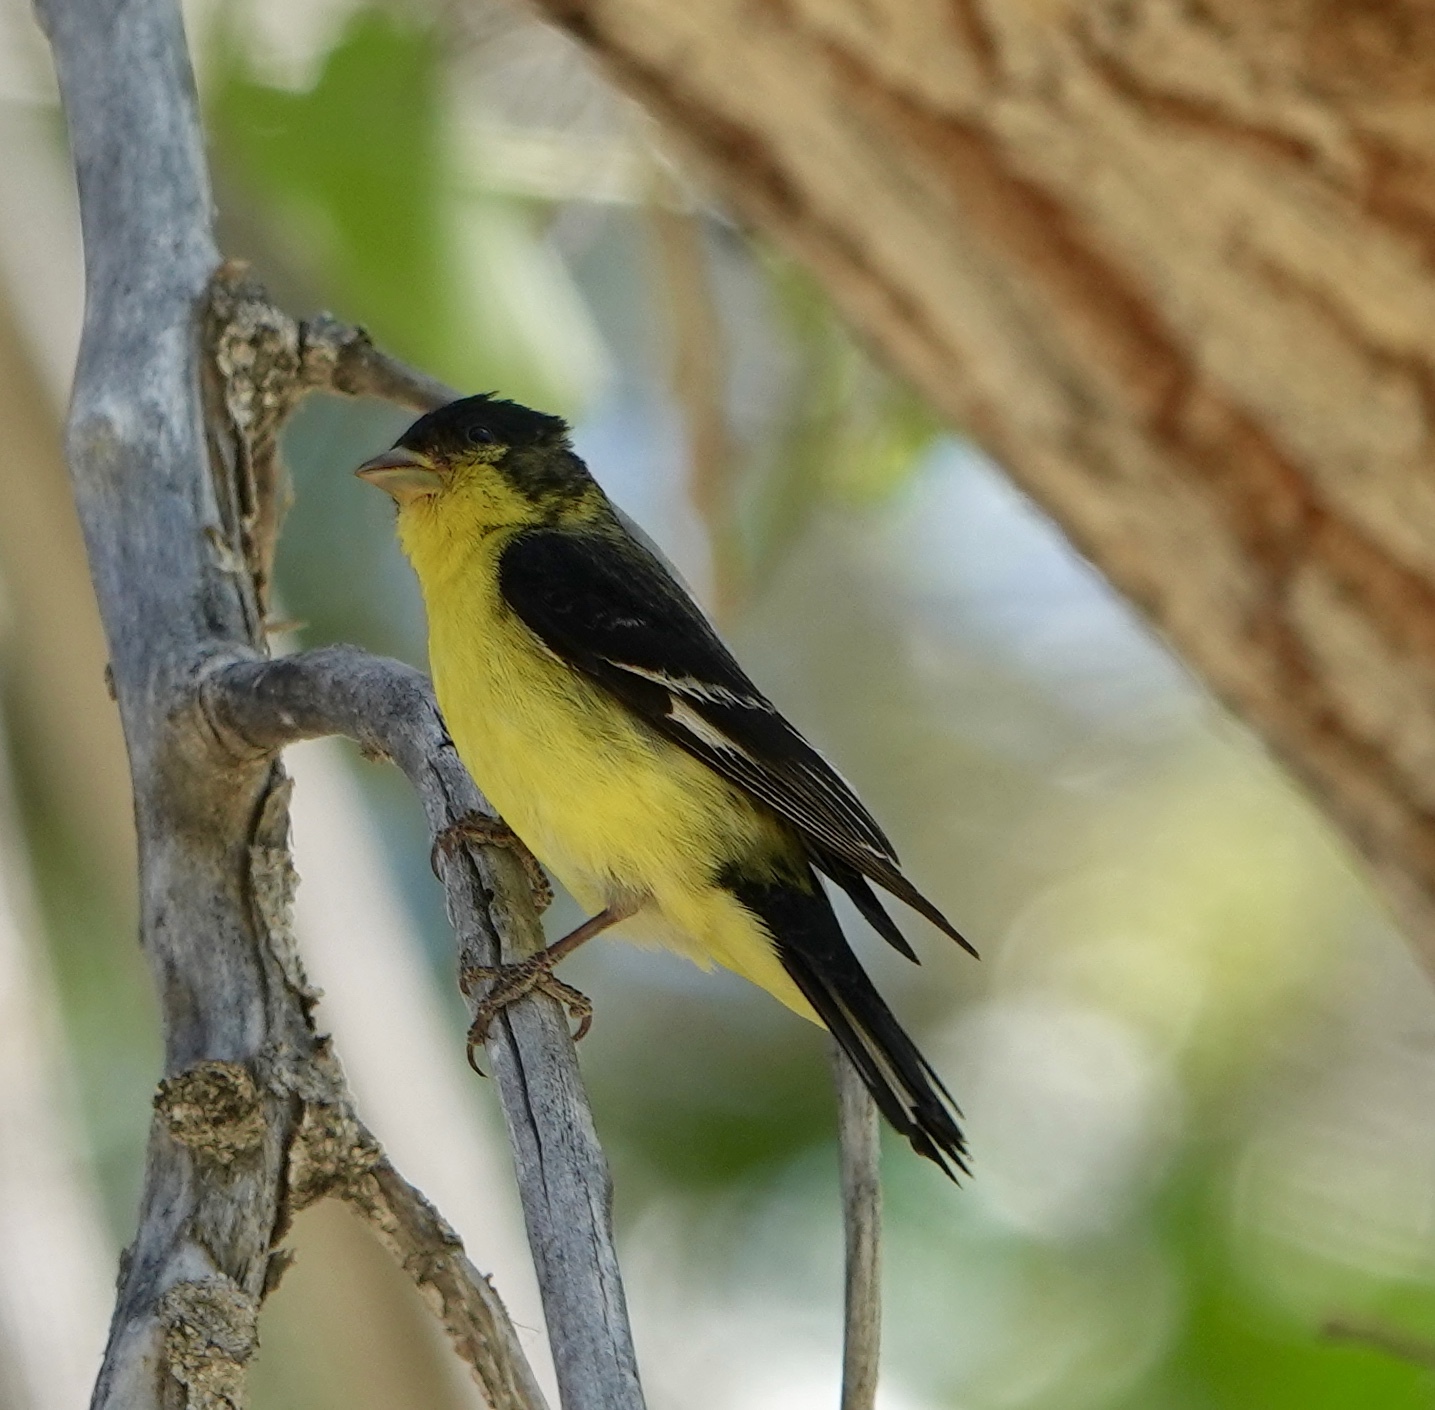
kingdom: Animalia
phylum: Chordata
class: Aves
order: Passeriformes
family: Fringillidae
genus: Spinus
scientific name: Spinus psaltria
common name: Lesser goldfinch
